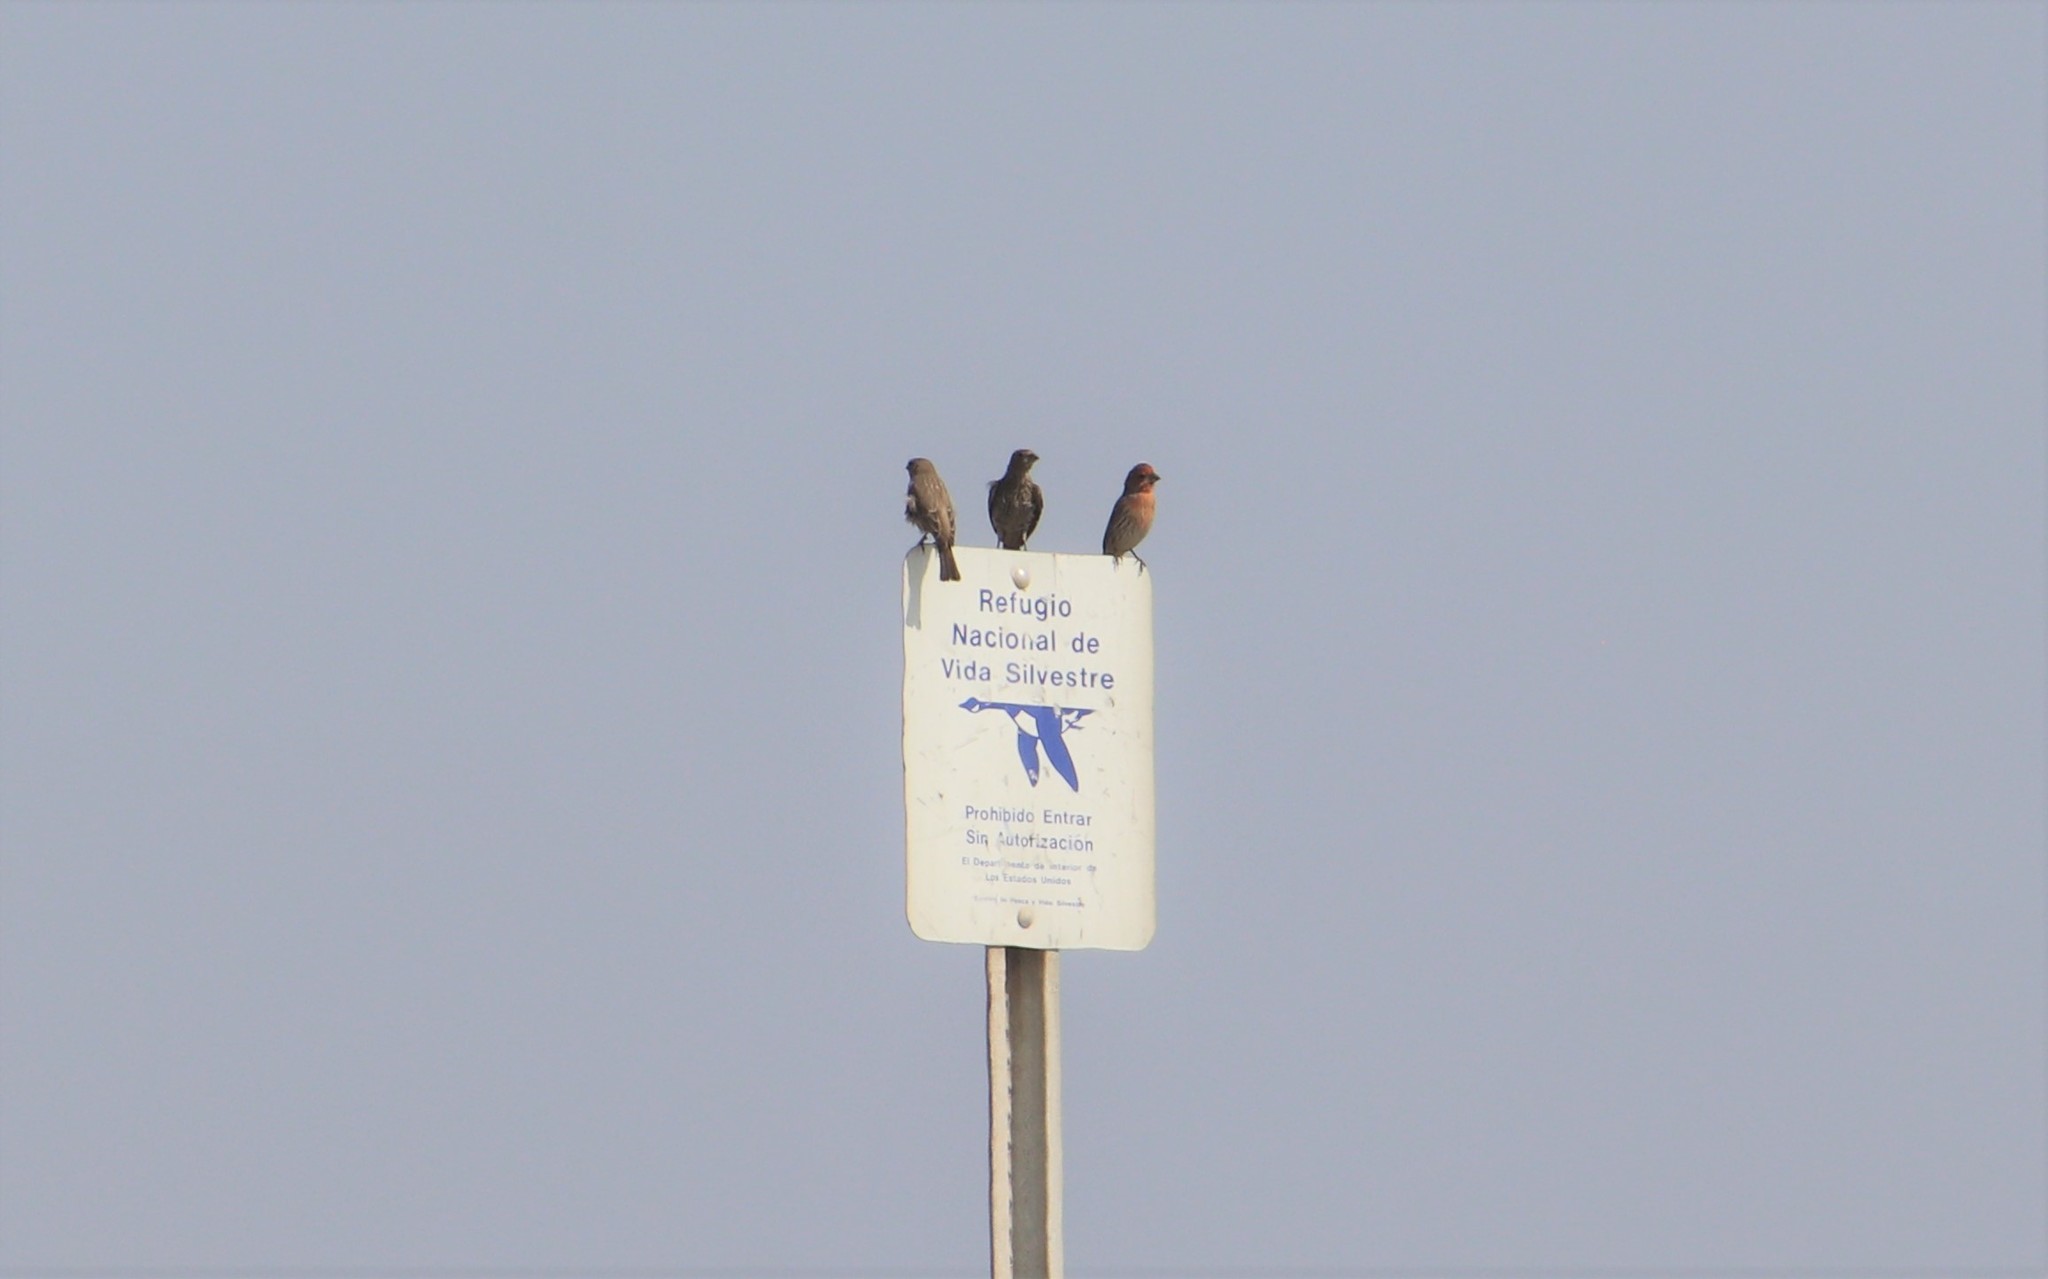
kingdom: Animalia
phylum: Chordata
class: Aves
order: Passeriformes
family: Fringillidae
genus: Haemorhous
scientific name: Haemorhous mexicanus
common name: House finch
